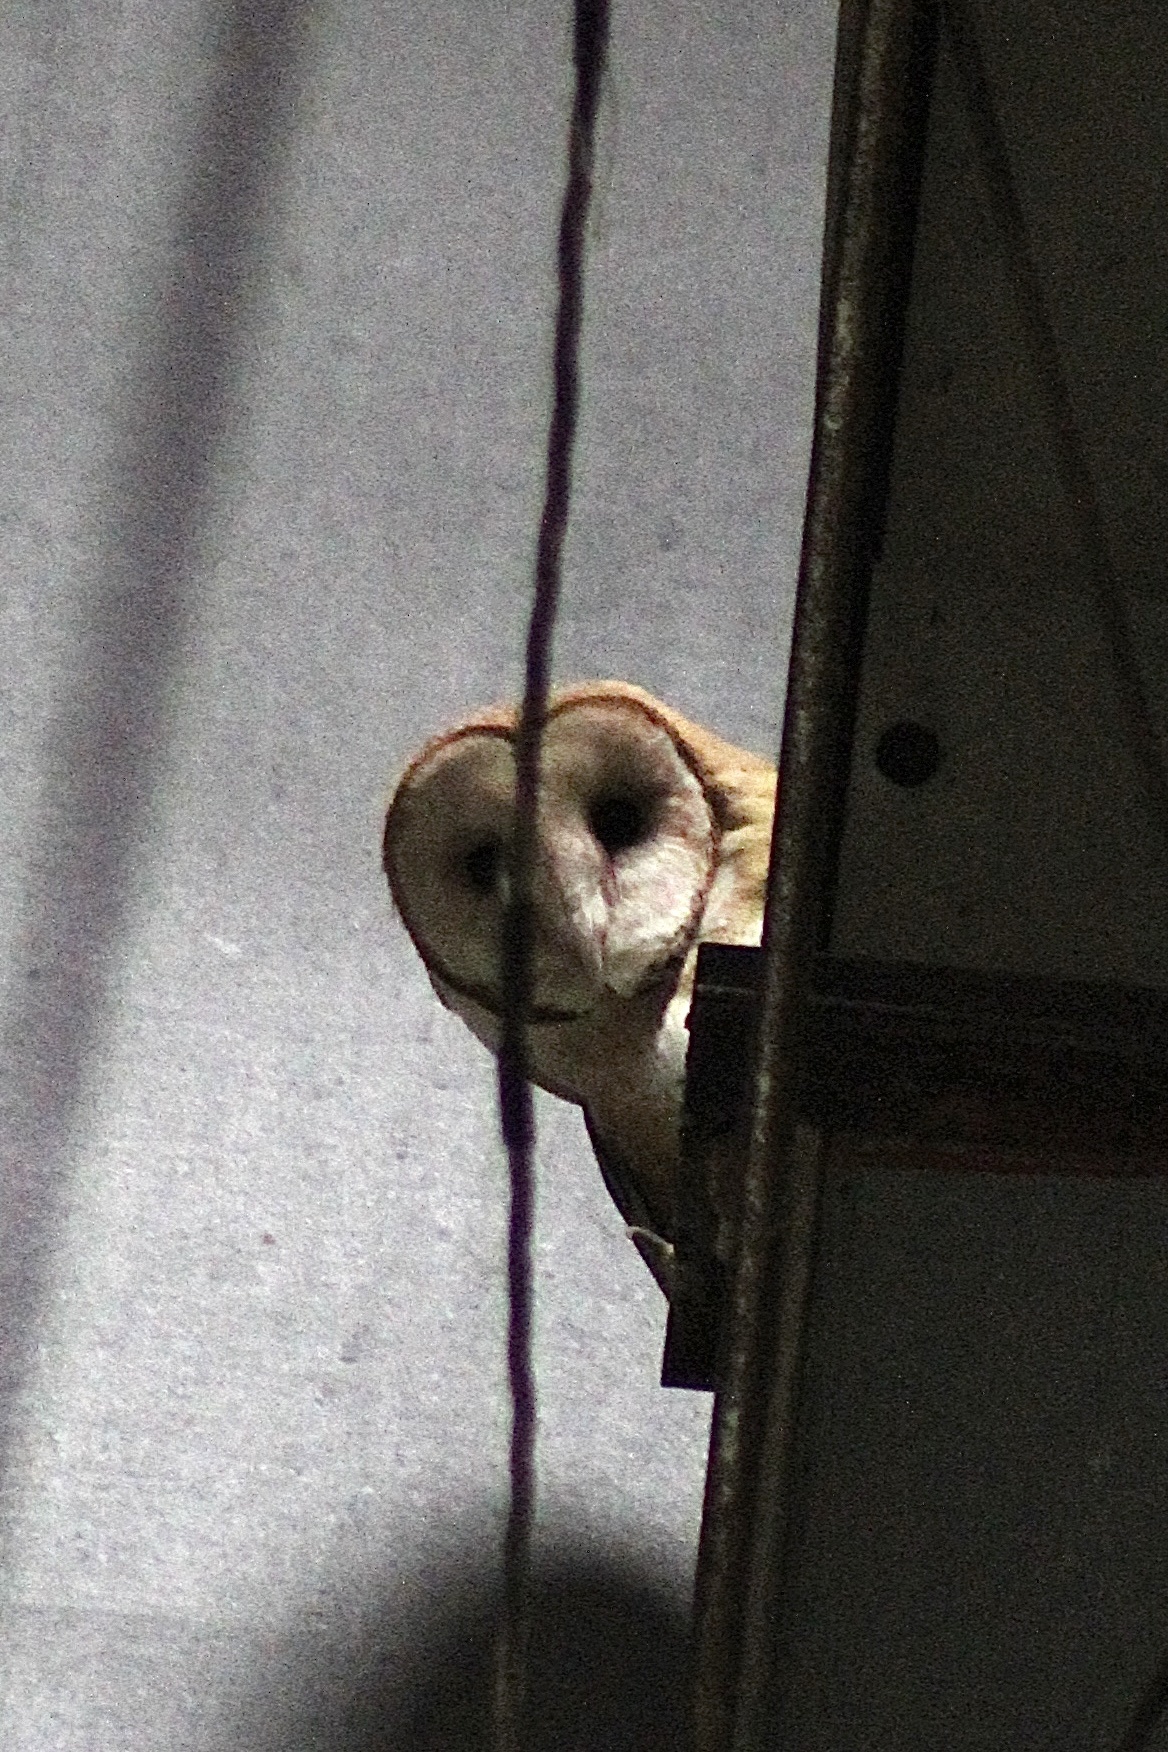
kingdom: Animalia
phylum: Chordata
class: Aves
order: Strigiformes
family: Tytonidae
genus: Tyto
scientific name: Tyto furcata
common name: American barn owl
